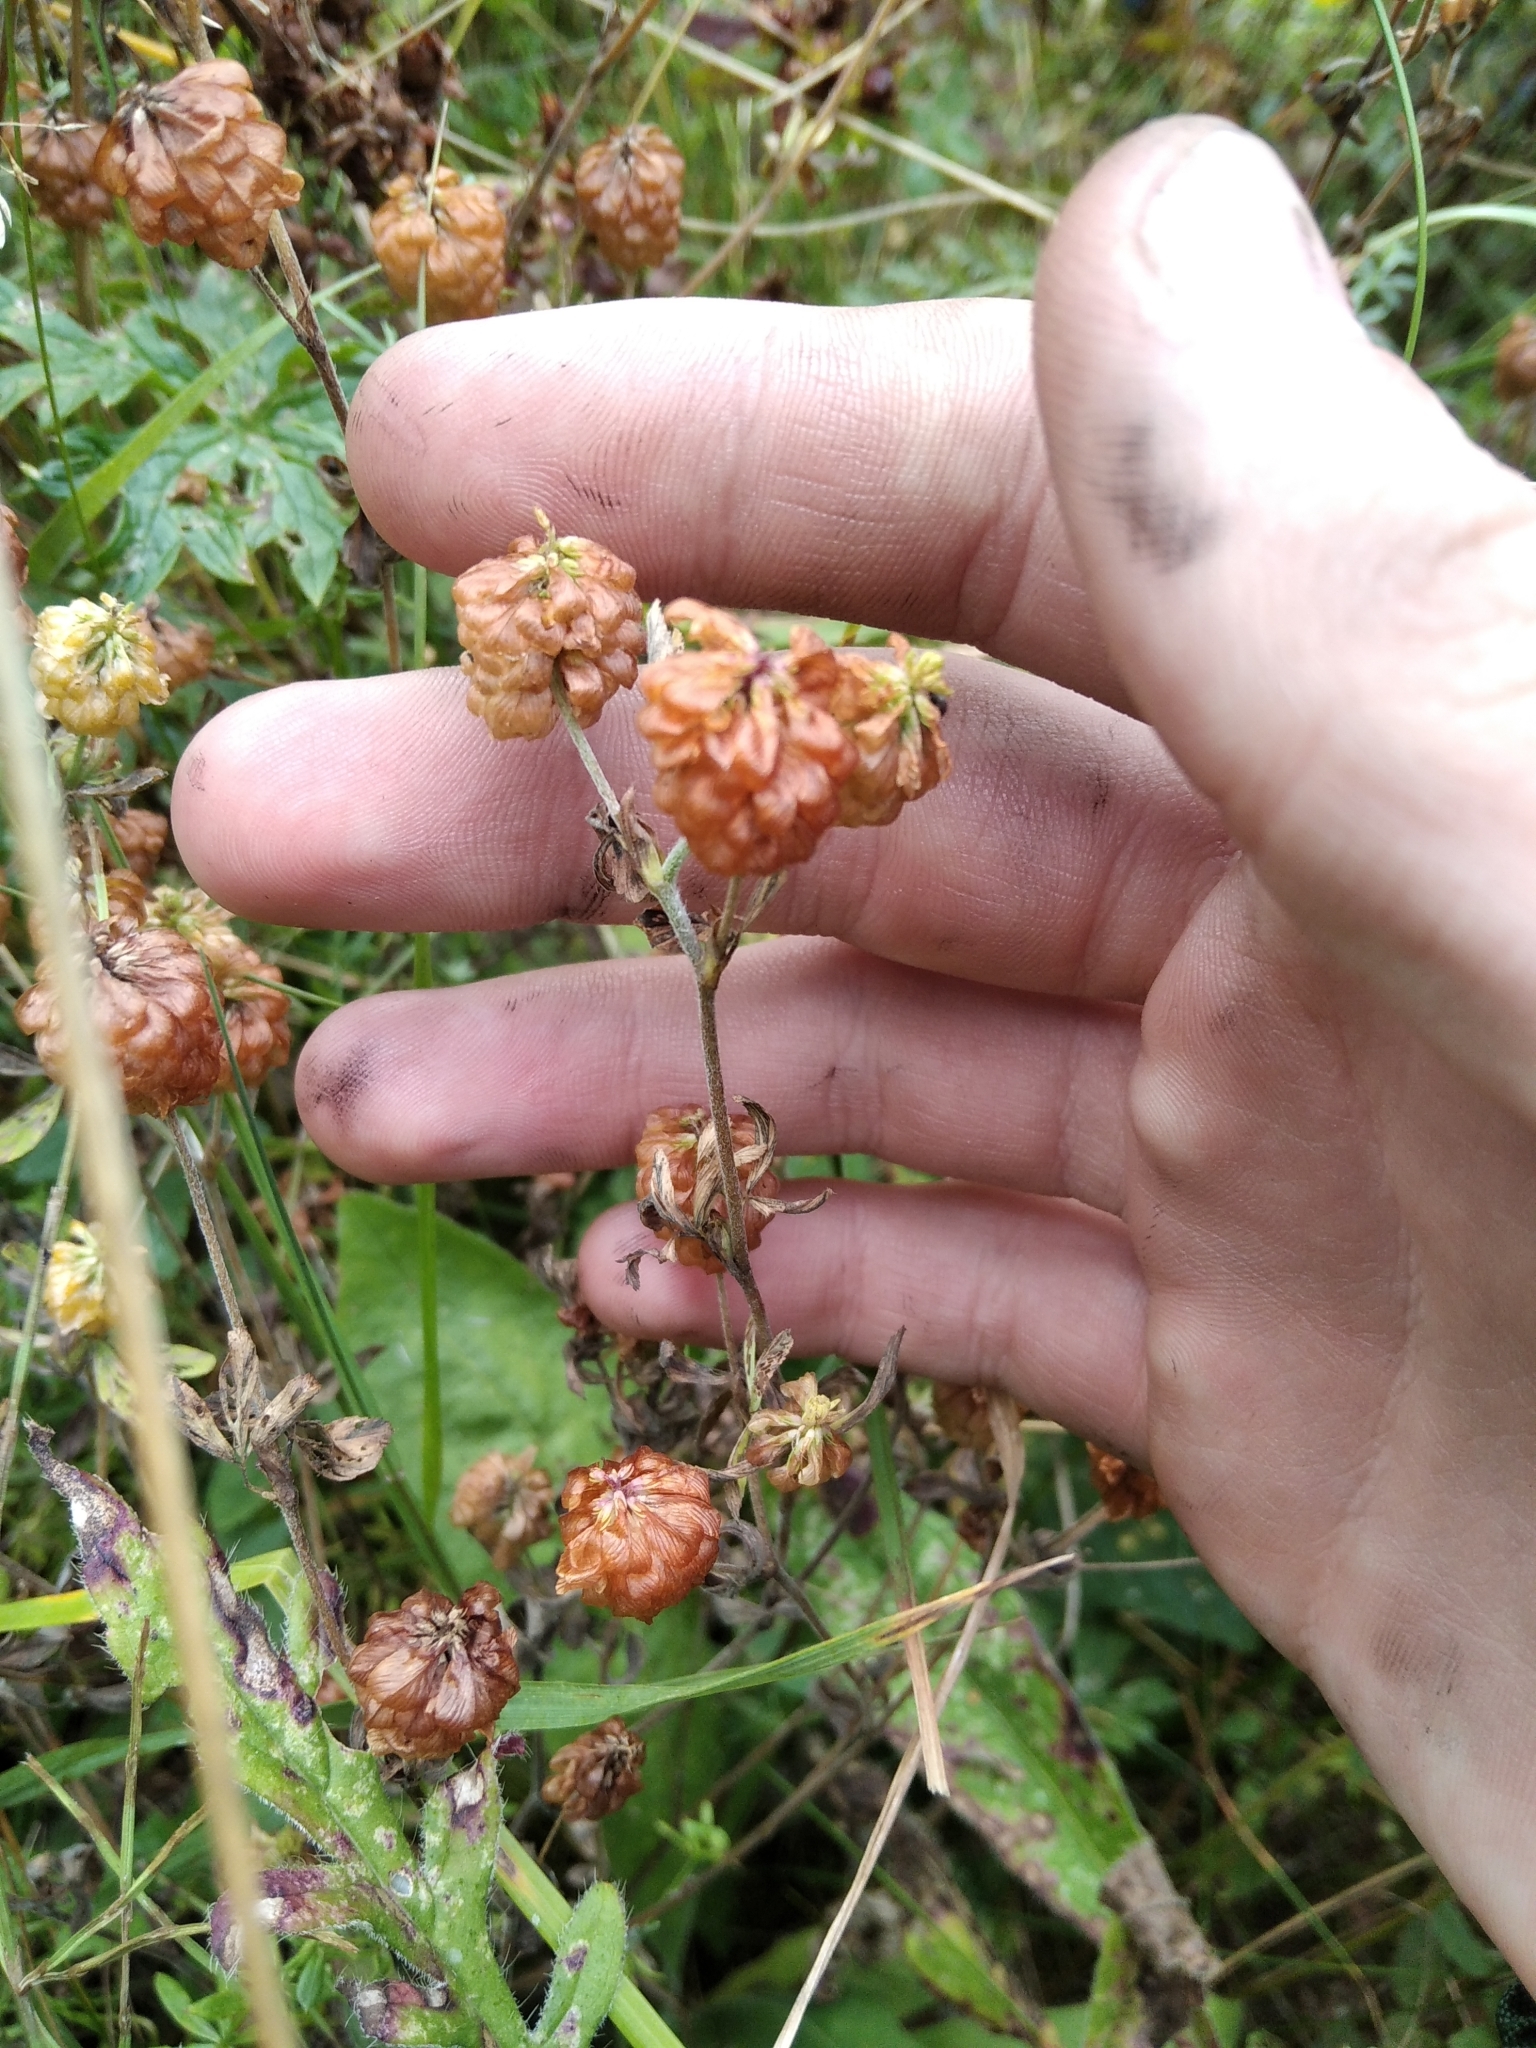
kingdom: Plantae
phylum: Tracheophyta
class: Magnoliopsida
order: Fabales
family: Fabaceae
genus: Trifolium
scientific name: Trifolium aureum
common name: Golden clover
